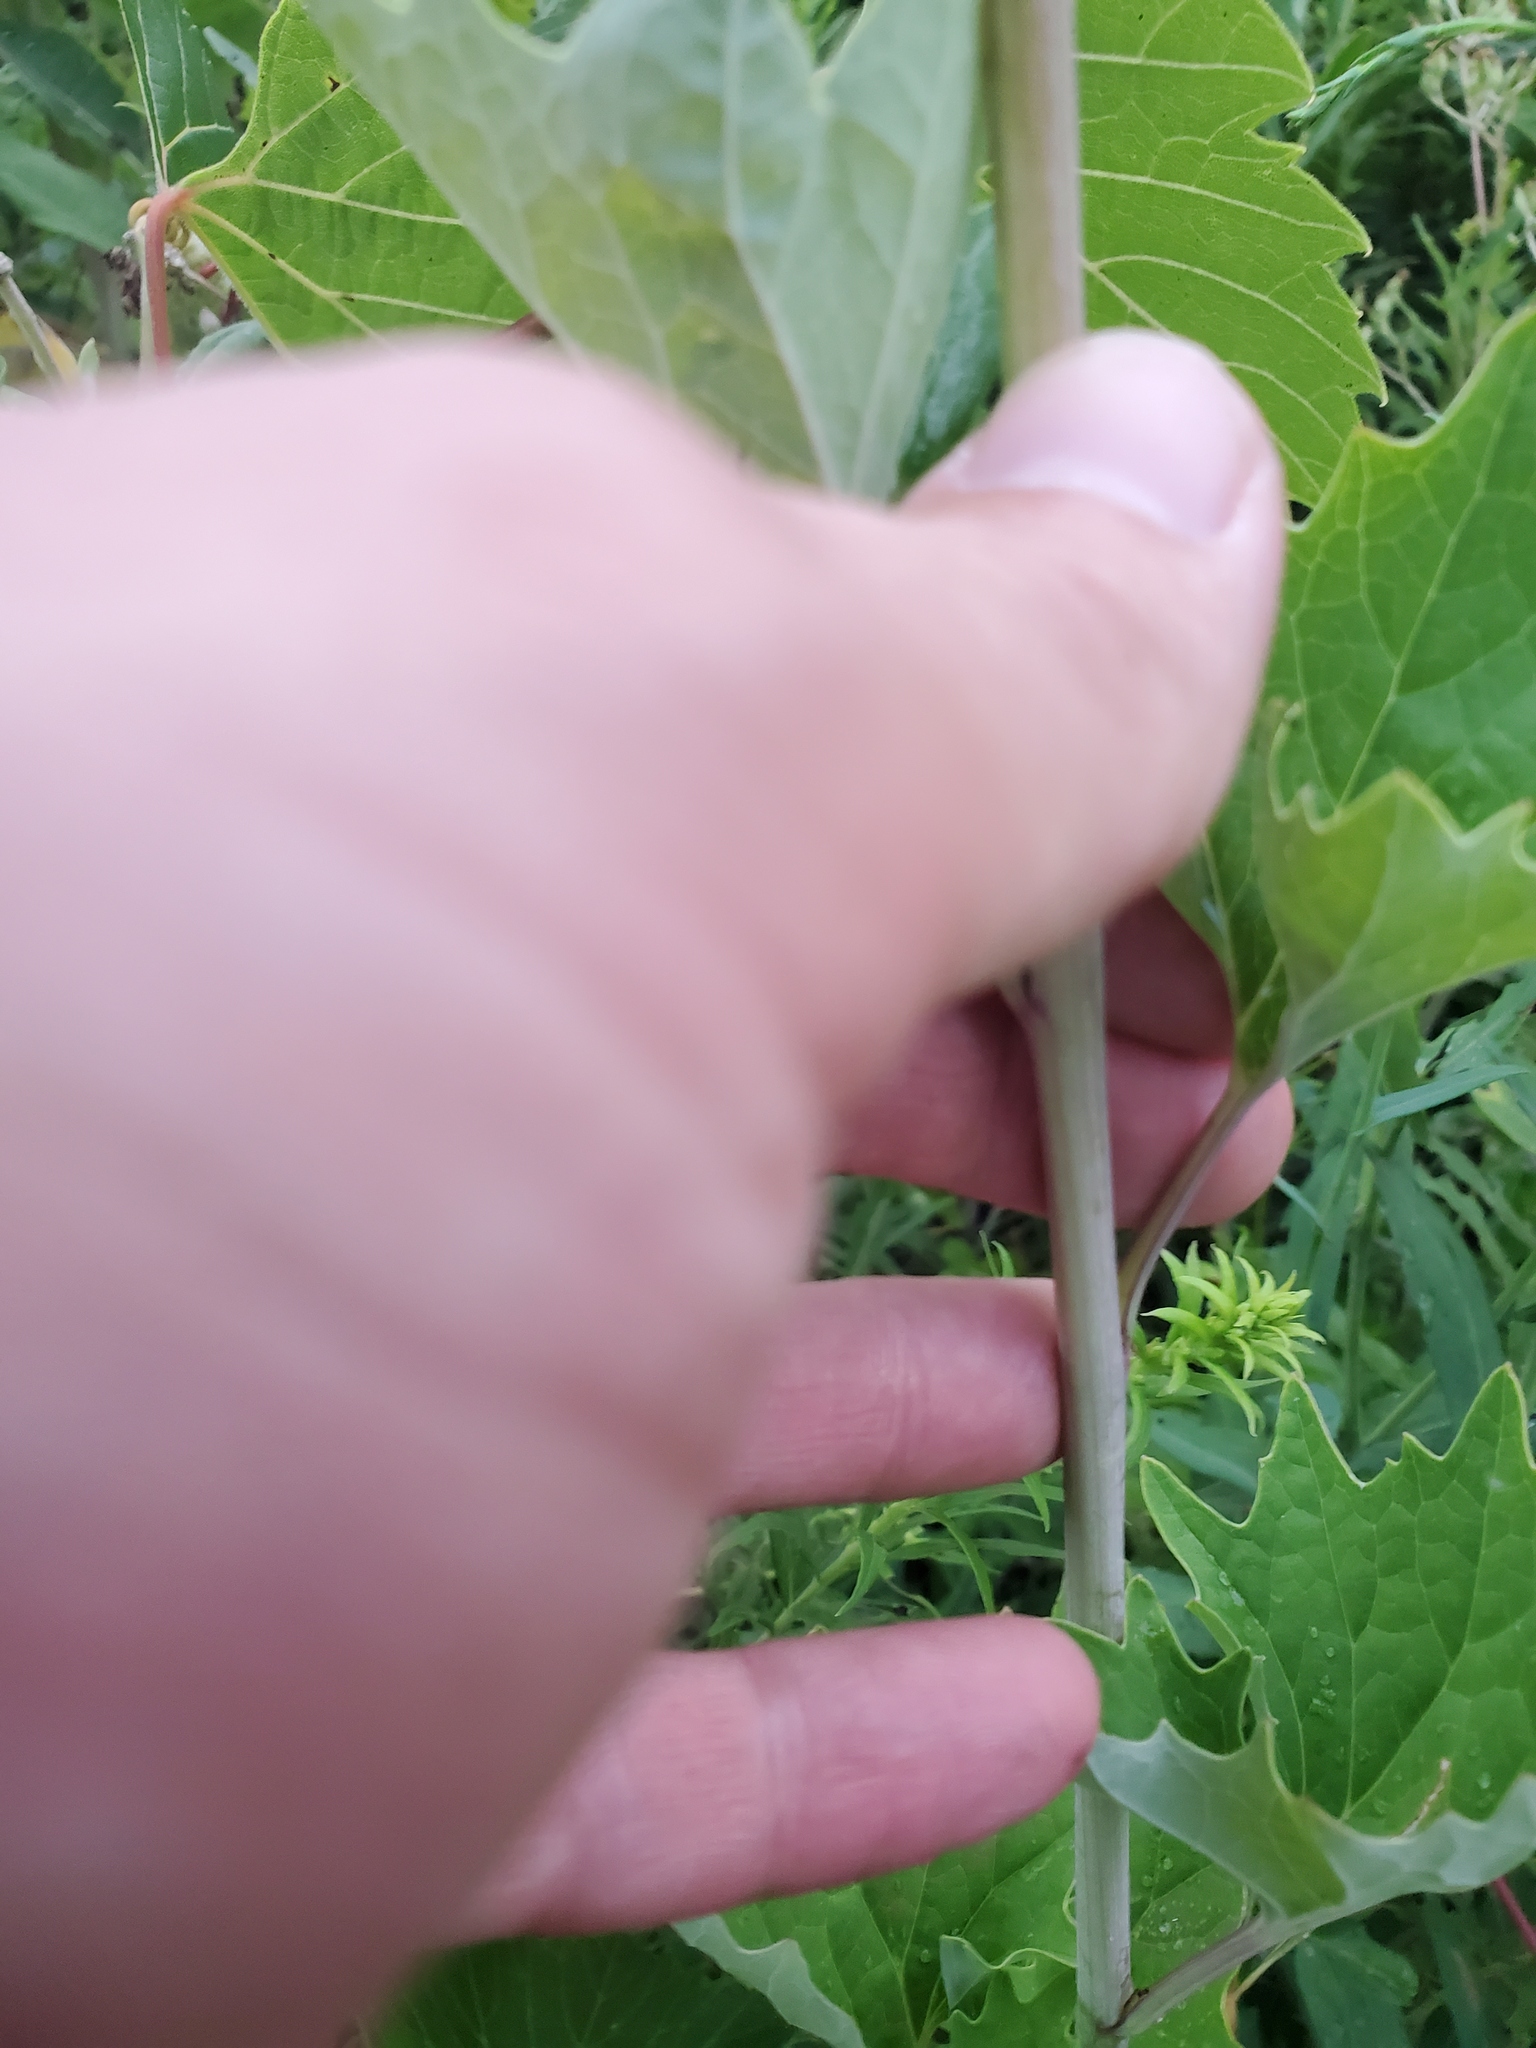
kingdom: Plantae
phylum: Tracheophyta
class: Magnoliopsida
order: Asterales
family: Asteraceae
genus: Arnoglossum
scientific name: Arnoglossum atriplicifolium
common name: Pale indian-plantain
